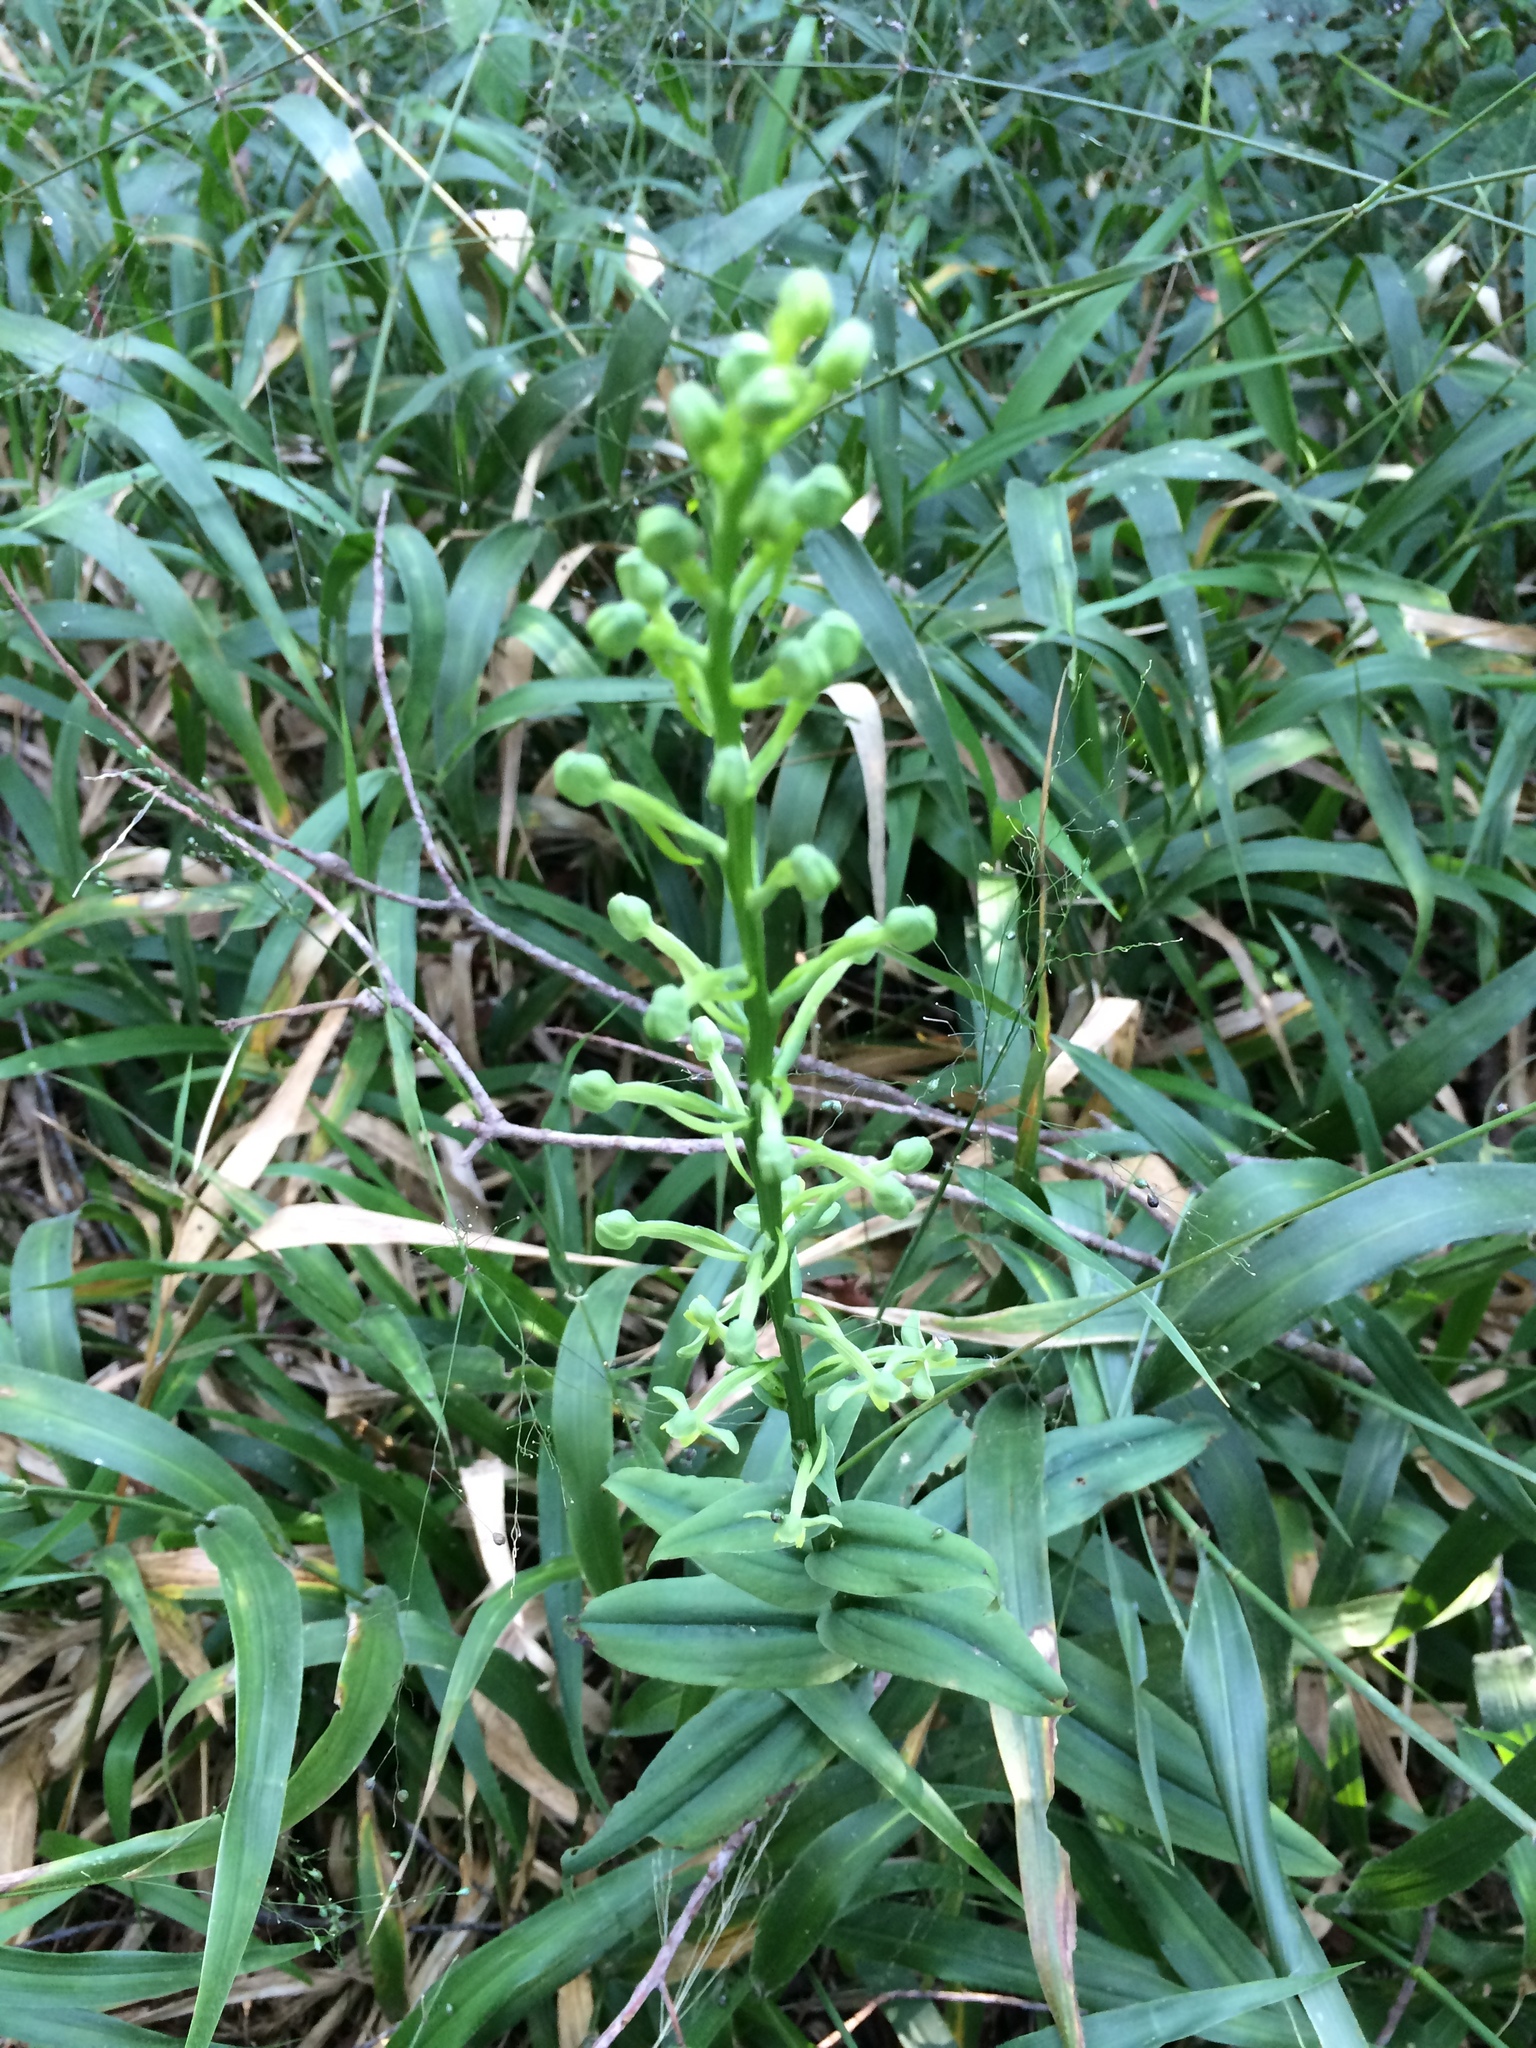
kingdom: Plantae
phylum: Tracheophyta
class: Liliopsida
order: Asparagales
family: Orchidaceae
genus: Habenaria
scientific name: Habenaria floribunda
